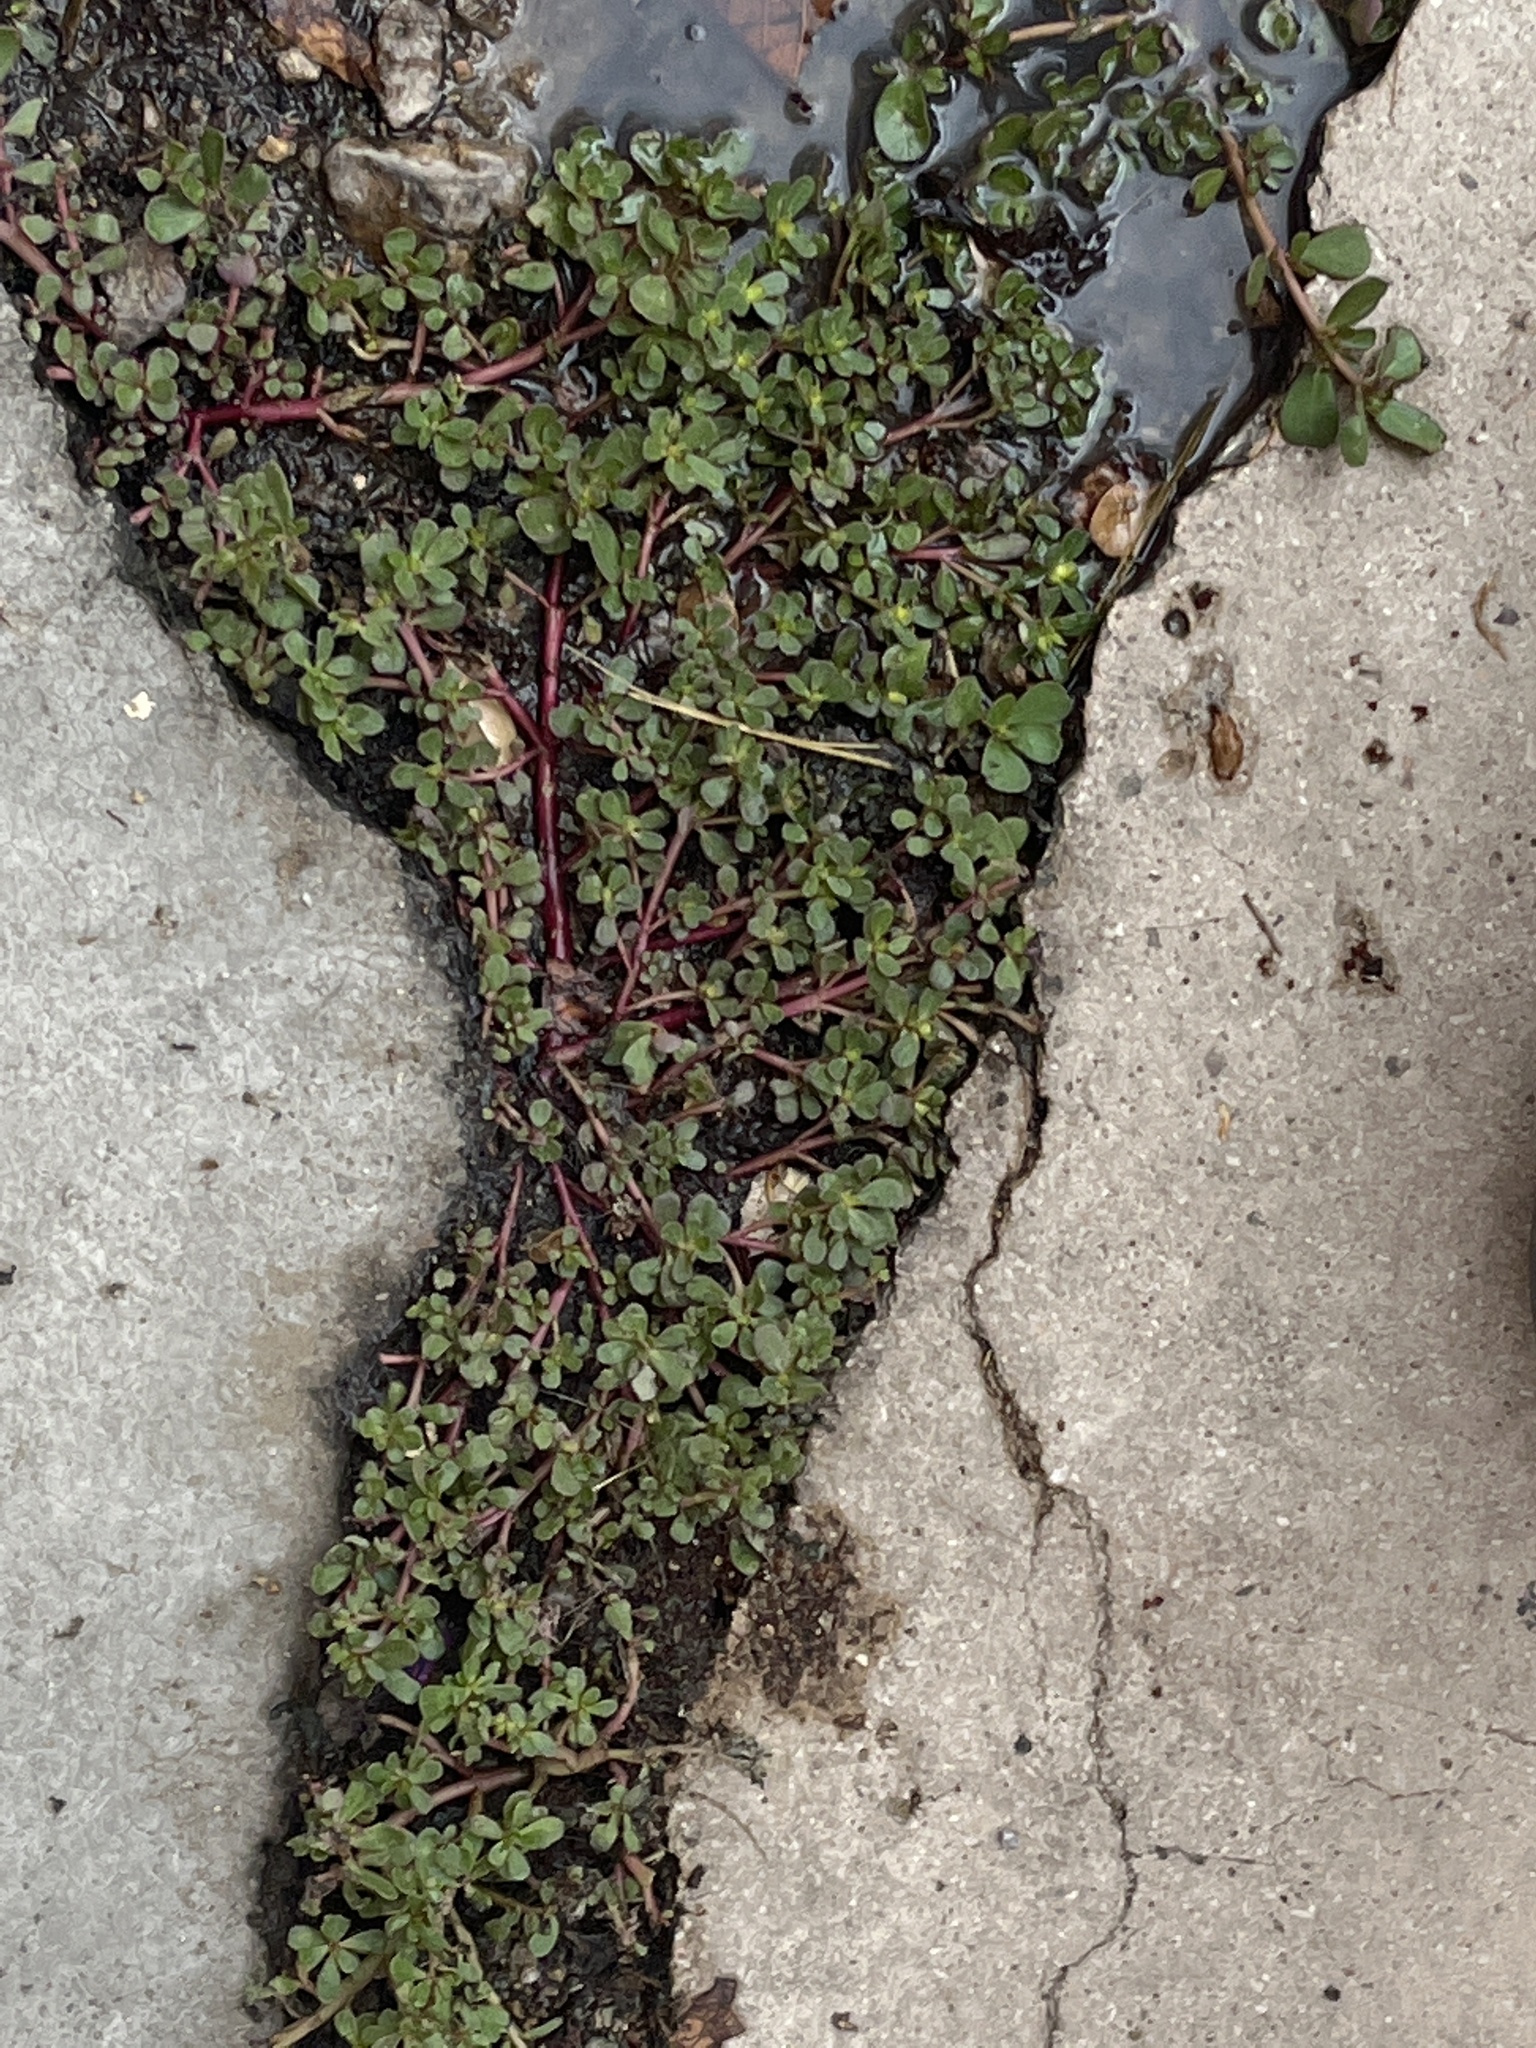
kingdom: Plantae
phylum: Tracheophyta
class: Magnoliopsida
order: Caryophyllales
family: Portulacaceae
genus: Portulaca
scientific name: Portulaca oleracea
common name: Common purslane
